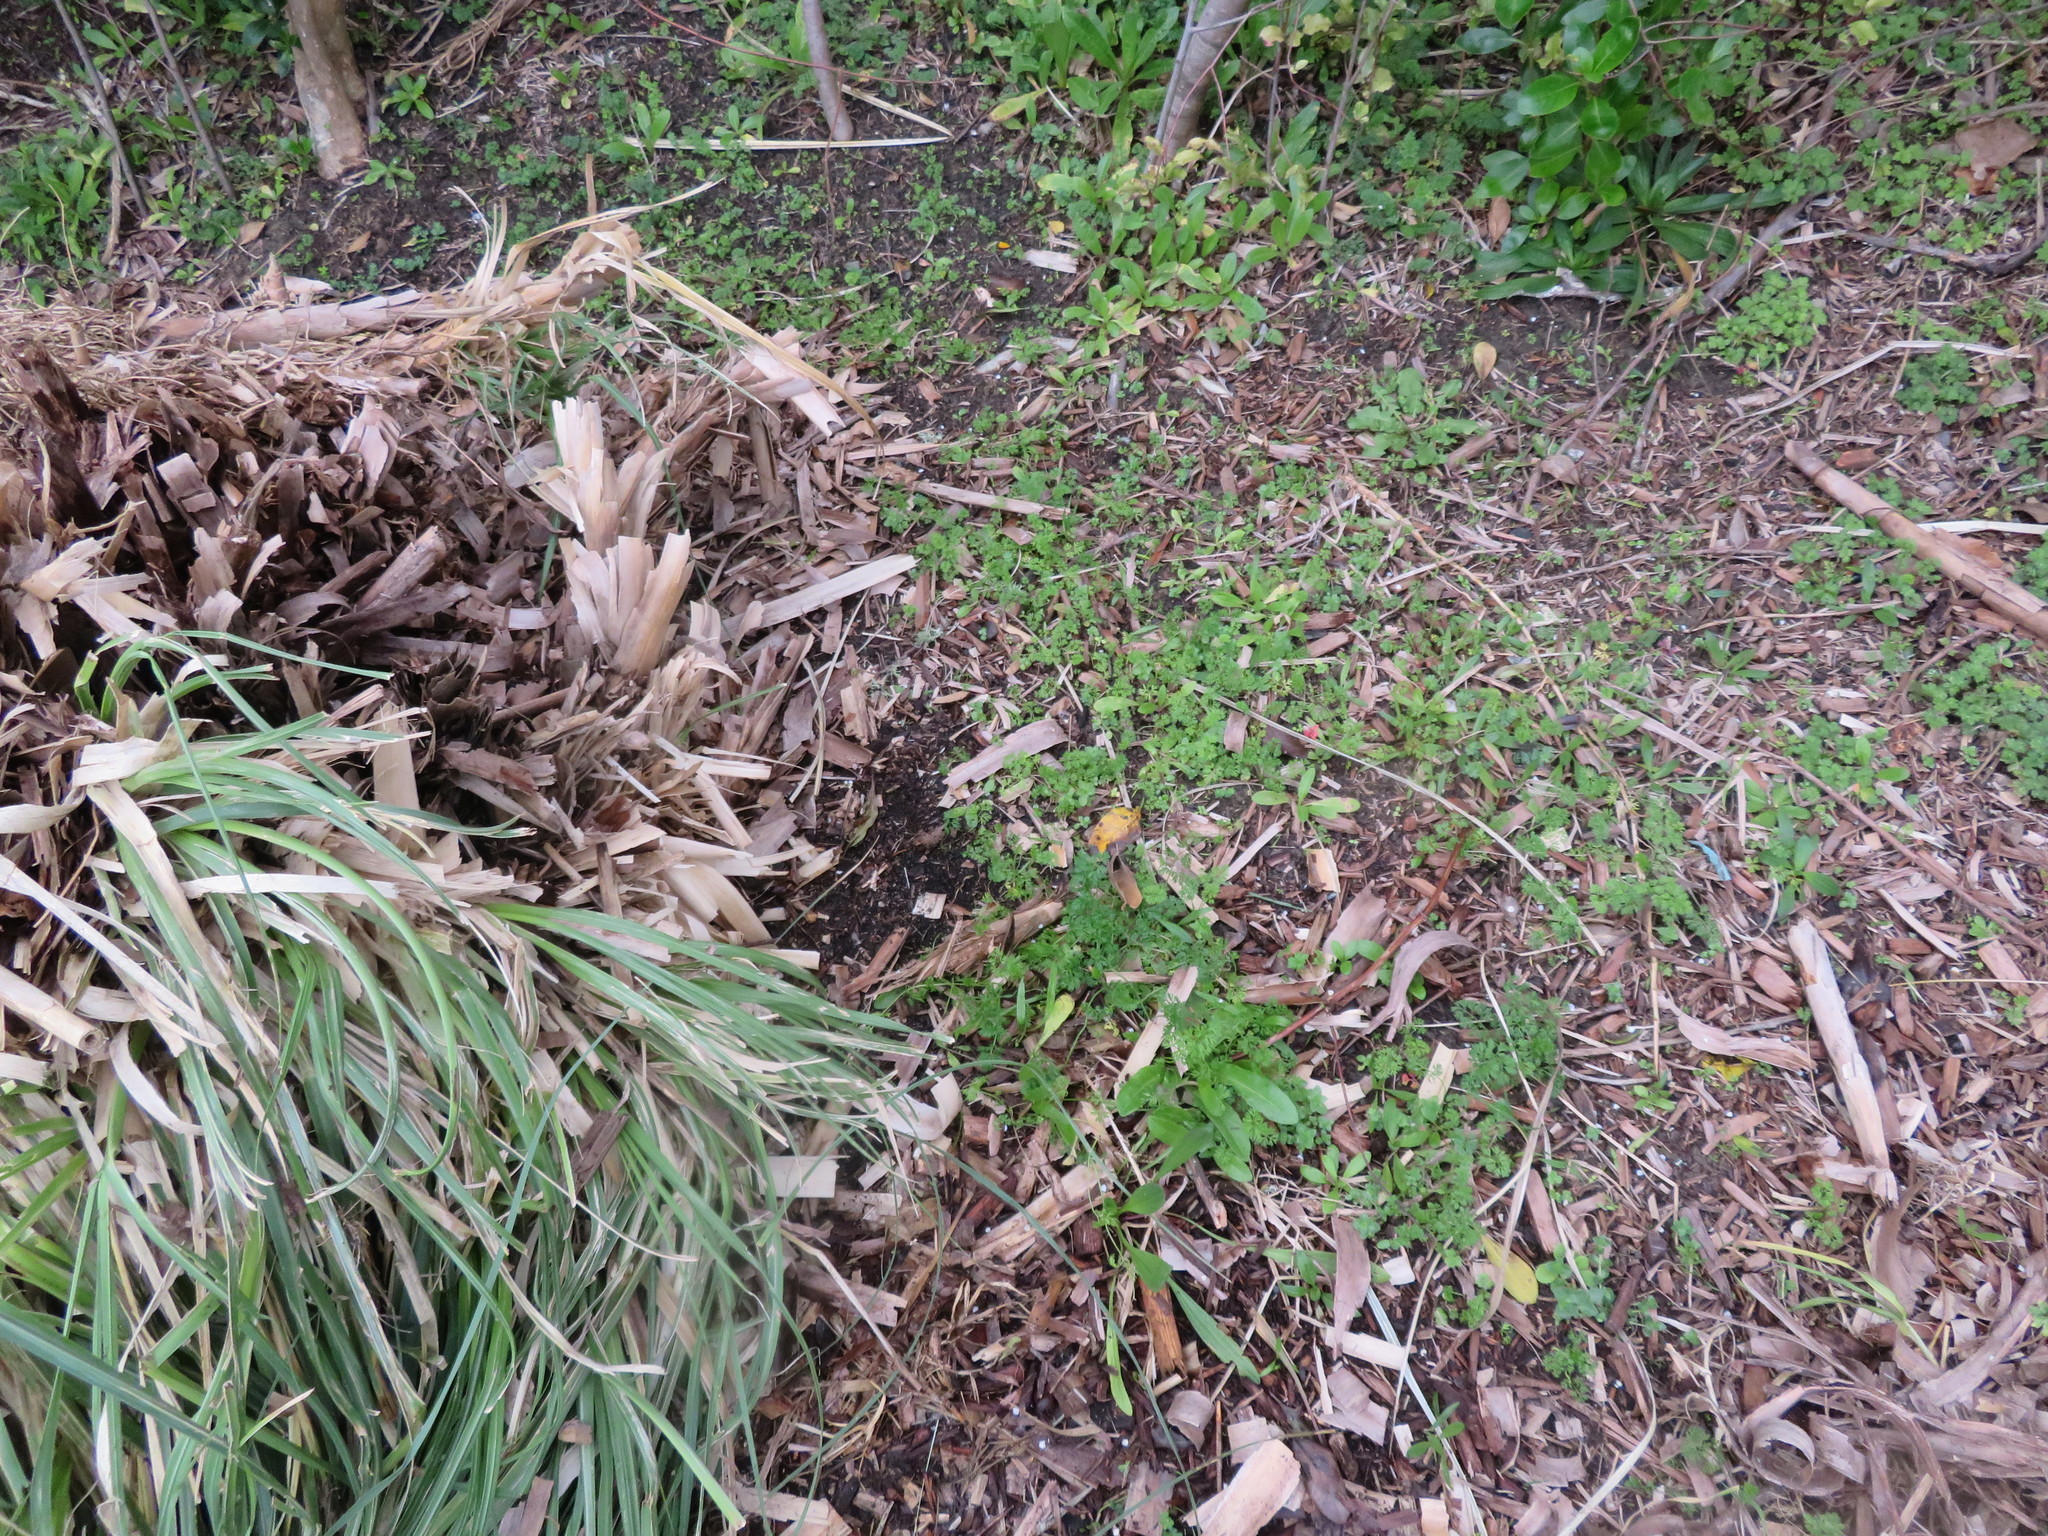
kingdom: Plantae
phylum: Tracheophyta
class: Magnoliopsida
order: Apiales
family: Apiaceae
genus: Daucus
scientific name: Daucus carota
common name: Wild carrot
